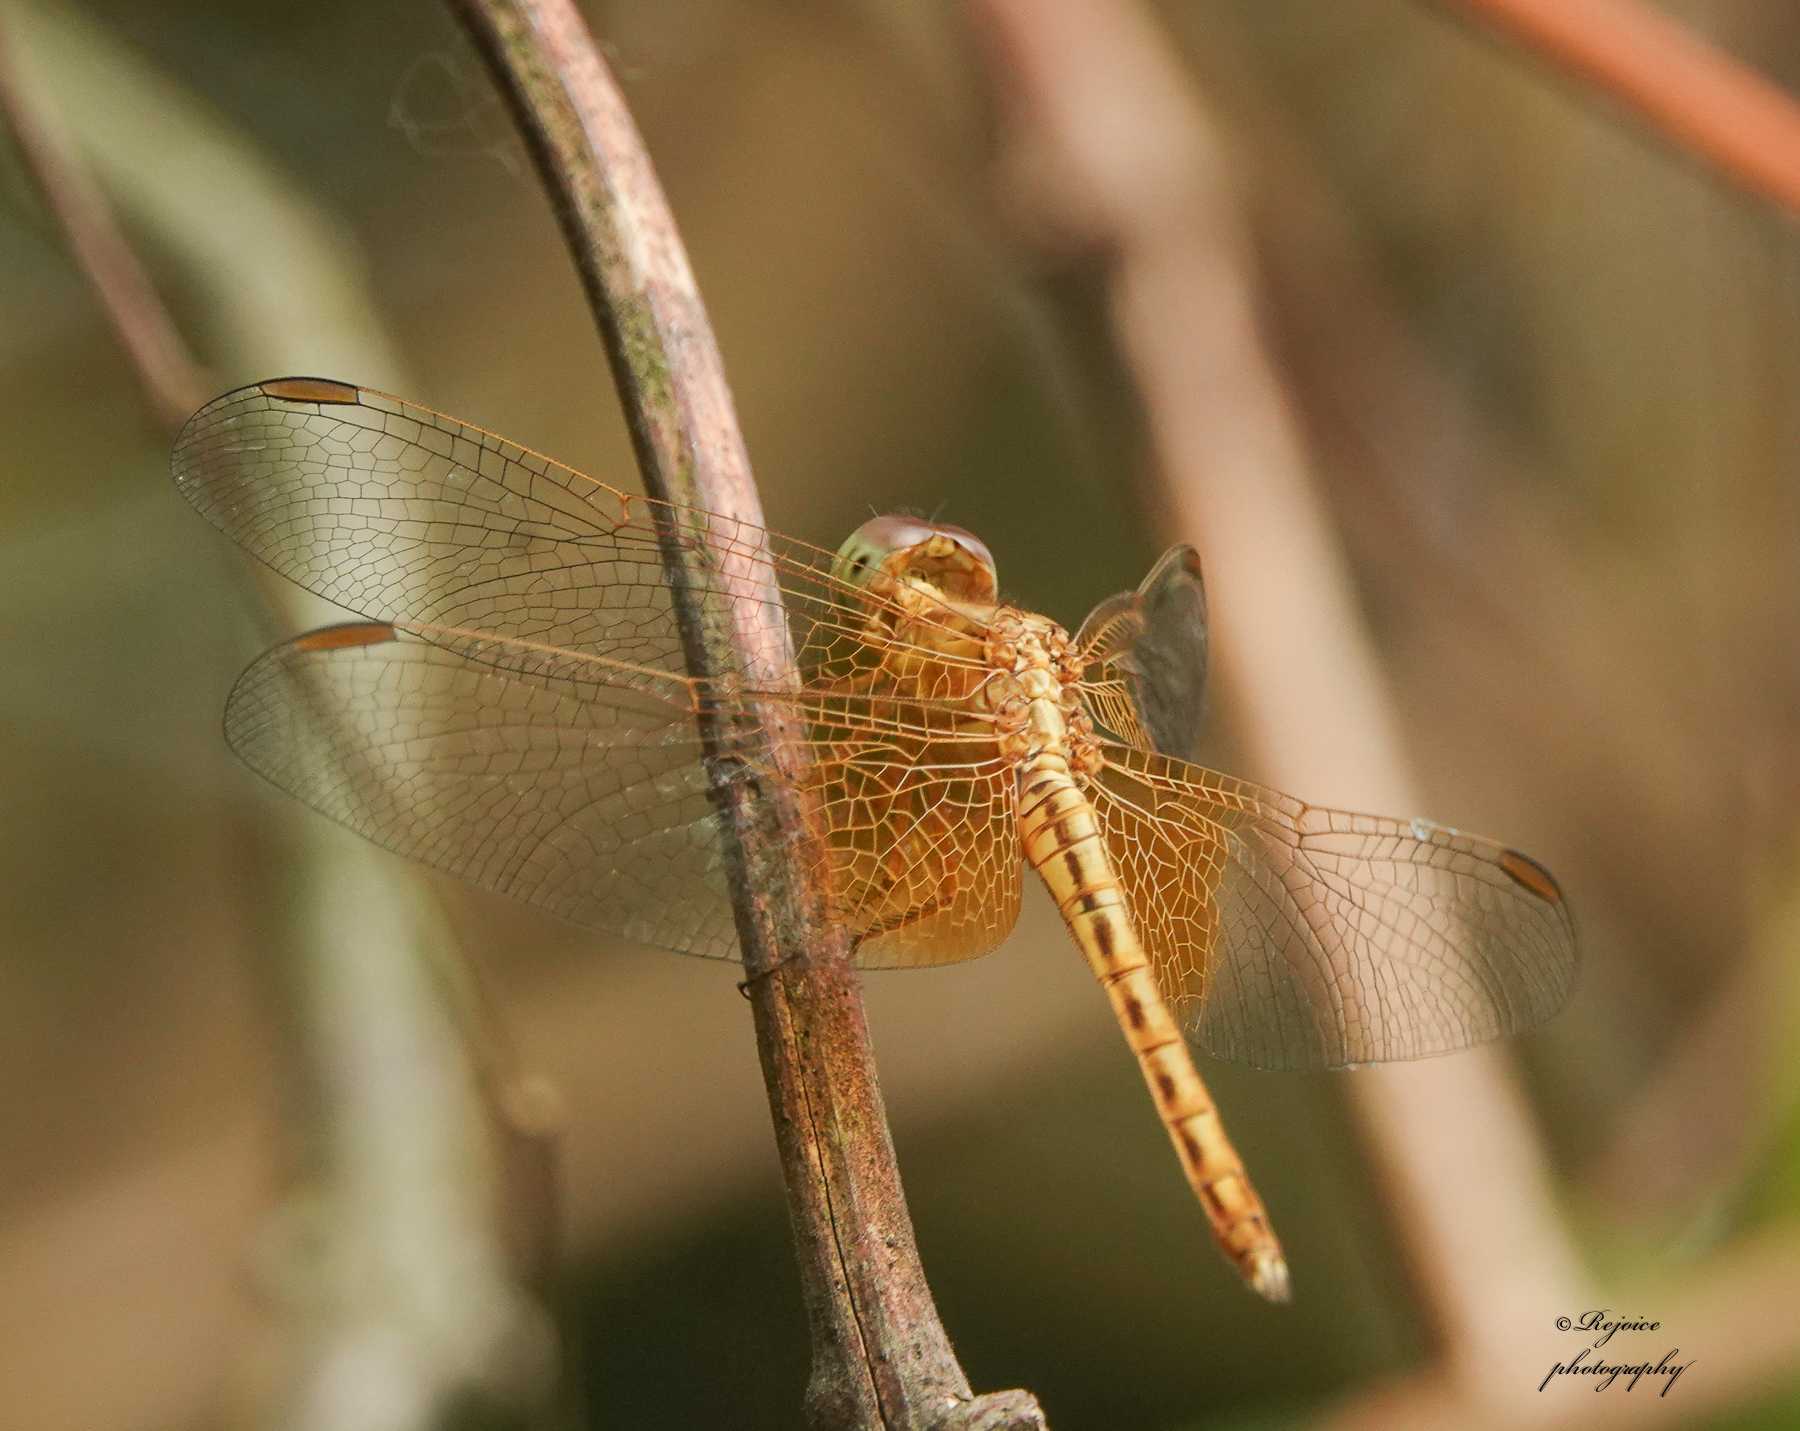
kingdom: Animalia
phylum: Arthropoda
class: Insecta
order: Odonata
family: Libellulidae
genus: Neurothemis
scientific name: Neurothemis intermedia
